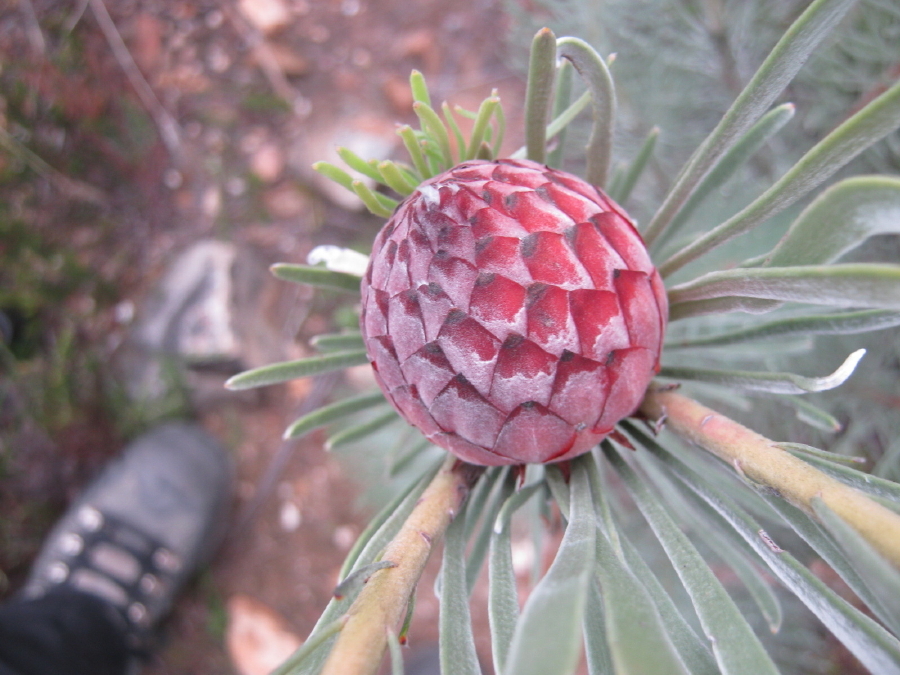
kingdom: Plantae
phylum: Tracheophyta
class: Magnoliopsida
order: Proteales
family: Proteaceae
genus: Leucadendron
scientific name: Leucadendron album
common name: Linear-leaf conebush
